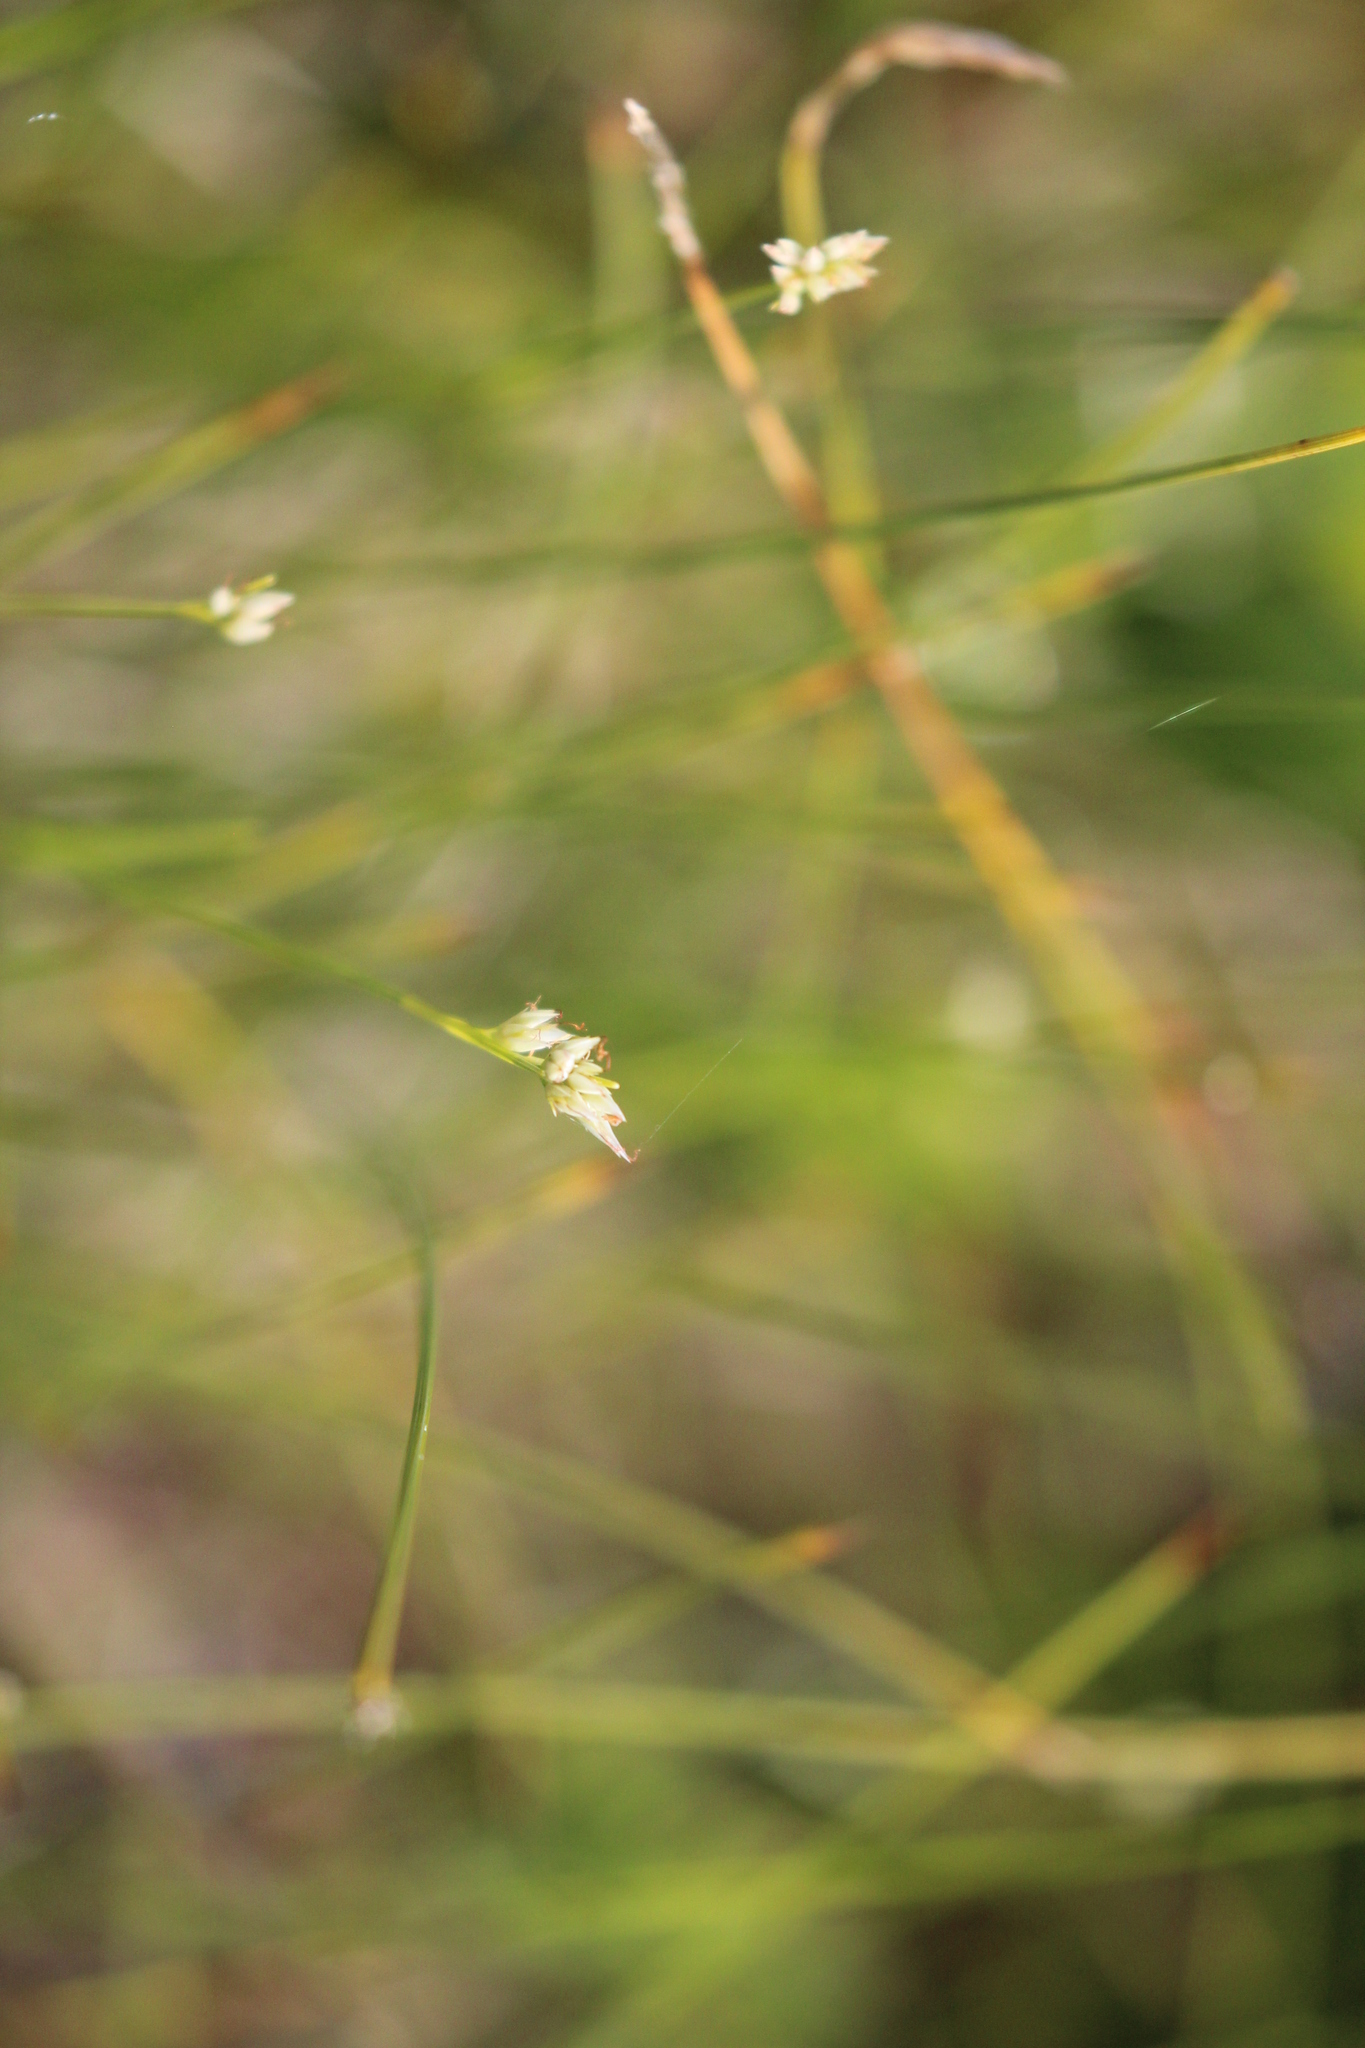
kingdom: Plantae
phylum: Tracheophyta
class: Liliopsida
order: Poales
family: Cyperaceae
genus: Rhynchospora
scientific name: Rhynchospora alba
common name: White beak-sedge
